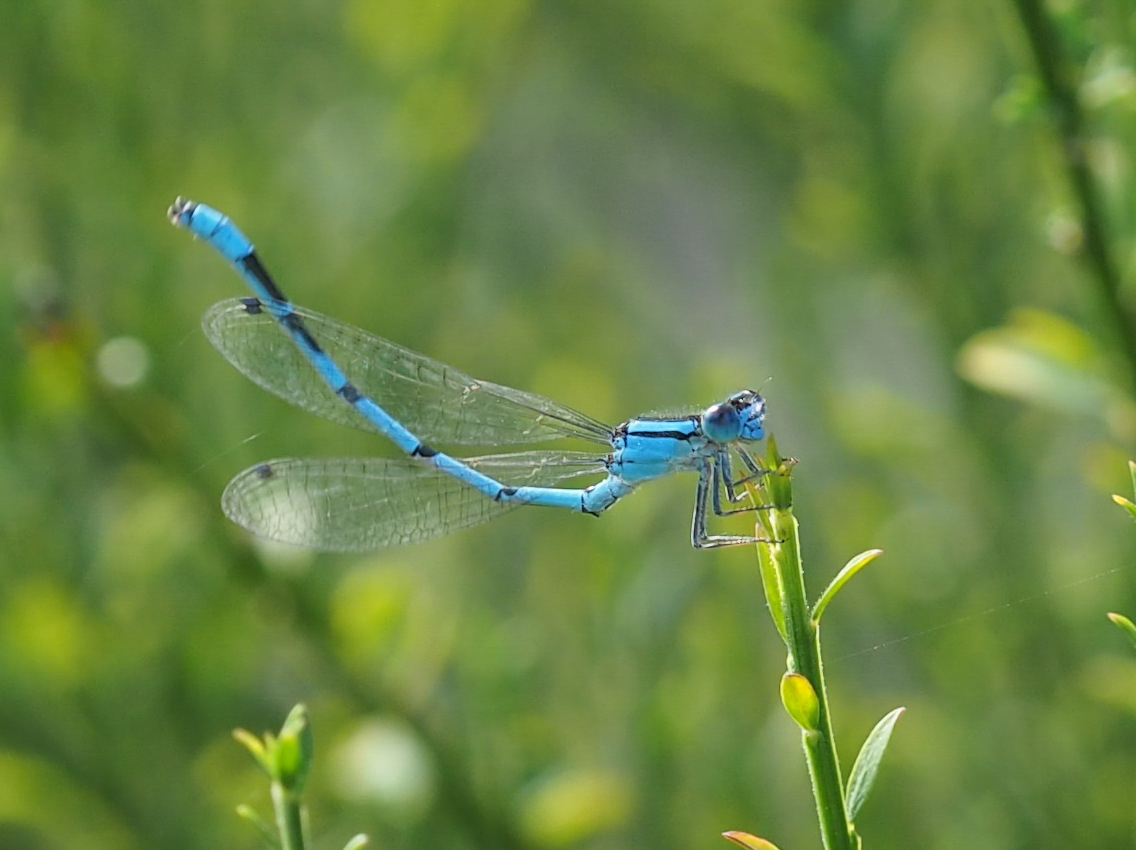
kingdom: Animalia
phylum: Arthropoda
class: Insecta
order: Odonata
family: Coenagrionidae
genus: Enallagma
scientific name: Enallagma civile
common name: Damselfly
